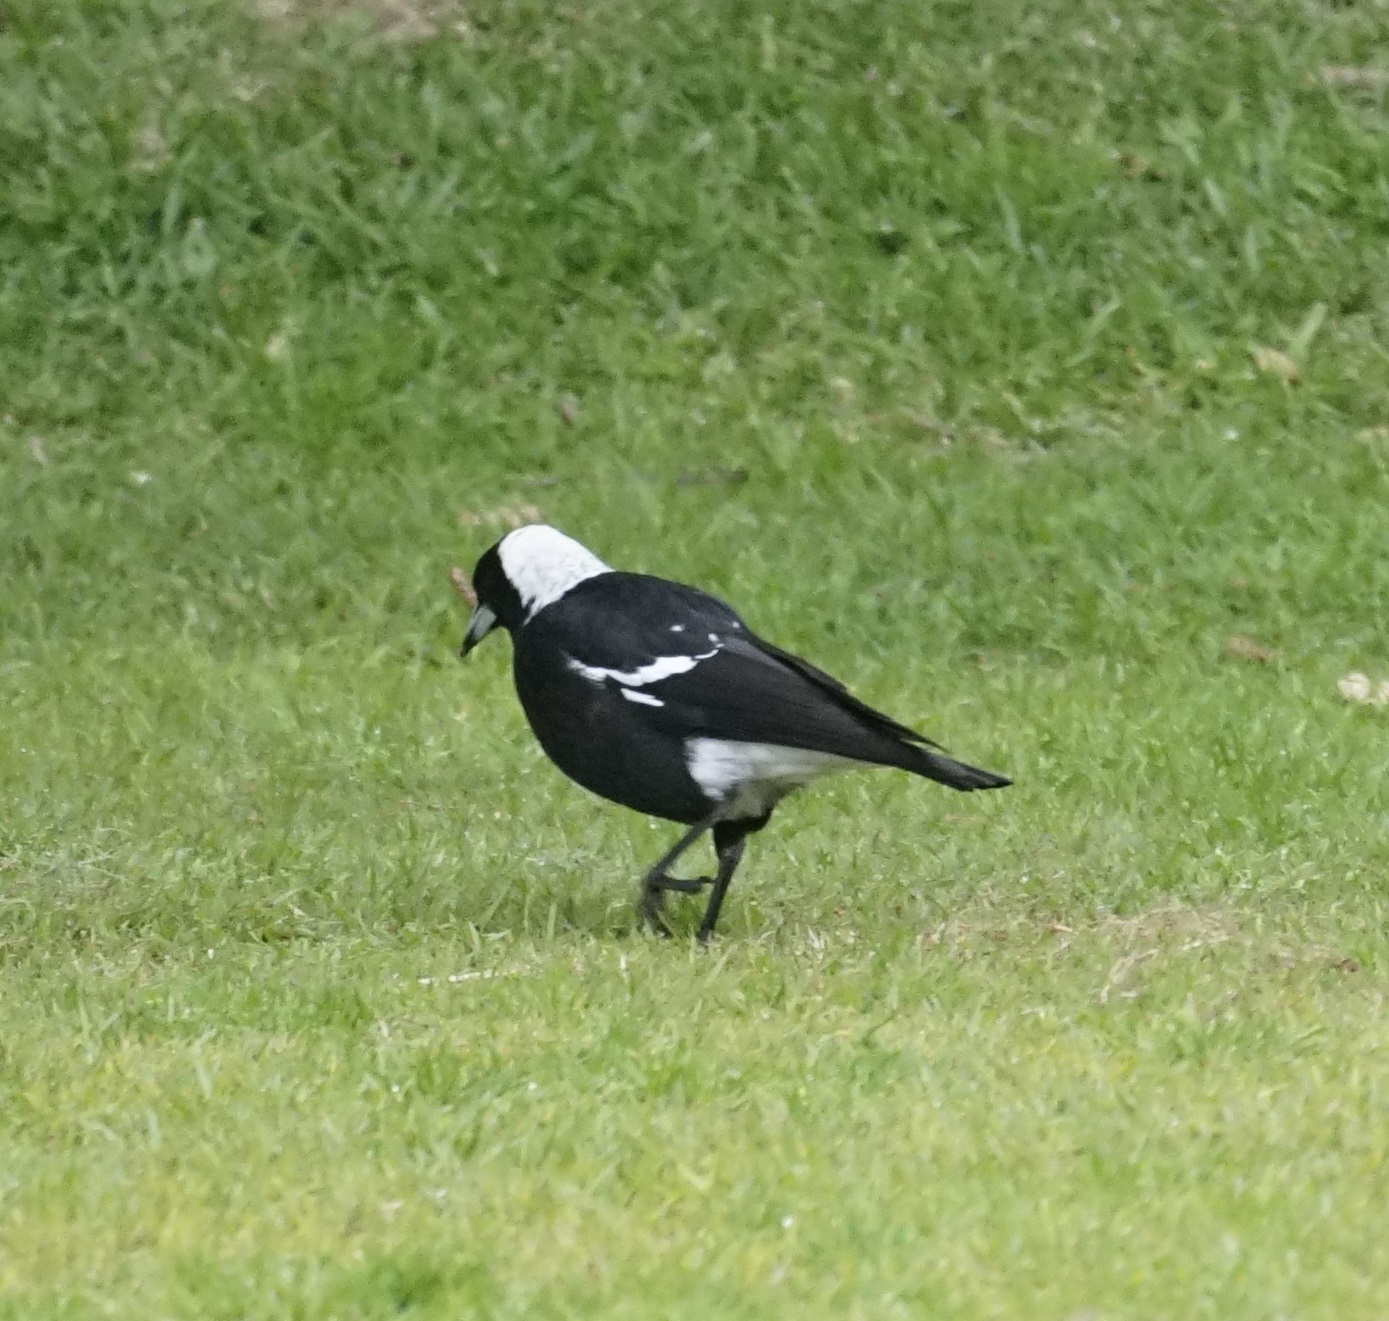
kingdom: Animalia
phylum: Chordata
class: Aves
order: Passeriformes
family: Cracticidae
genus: Gymnorhina
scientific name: Gymnorhina tibicen
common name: Australian magpie
